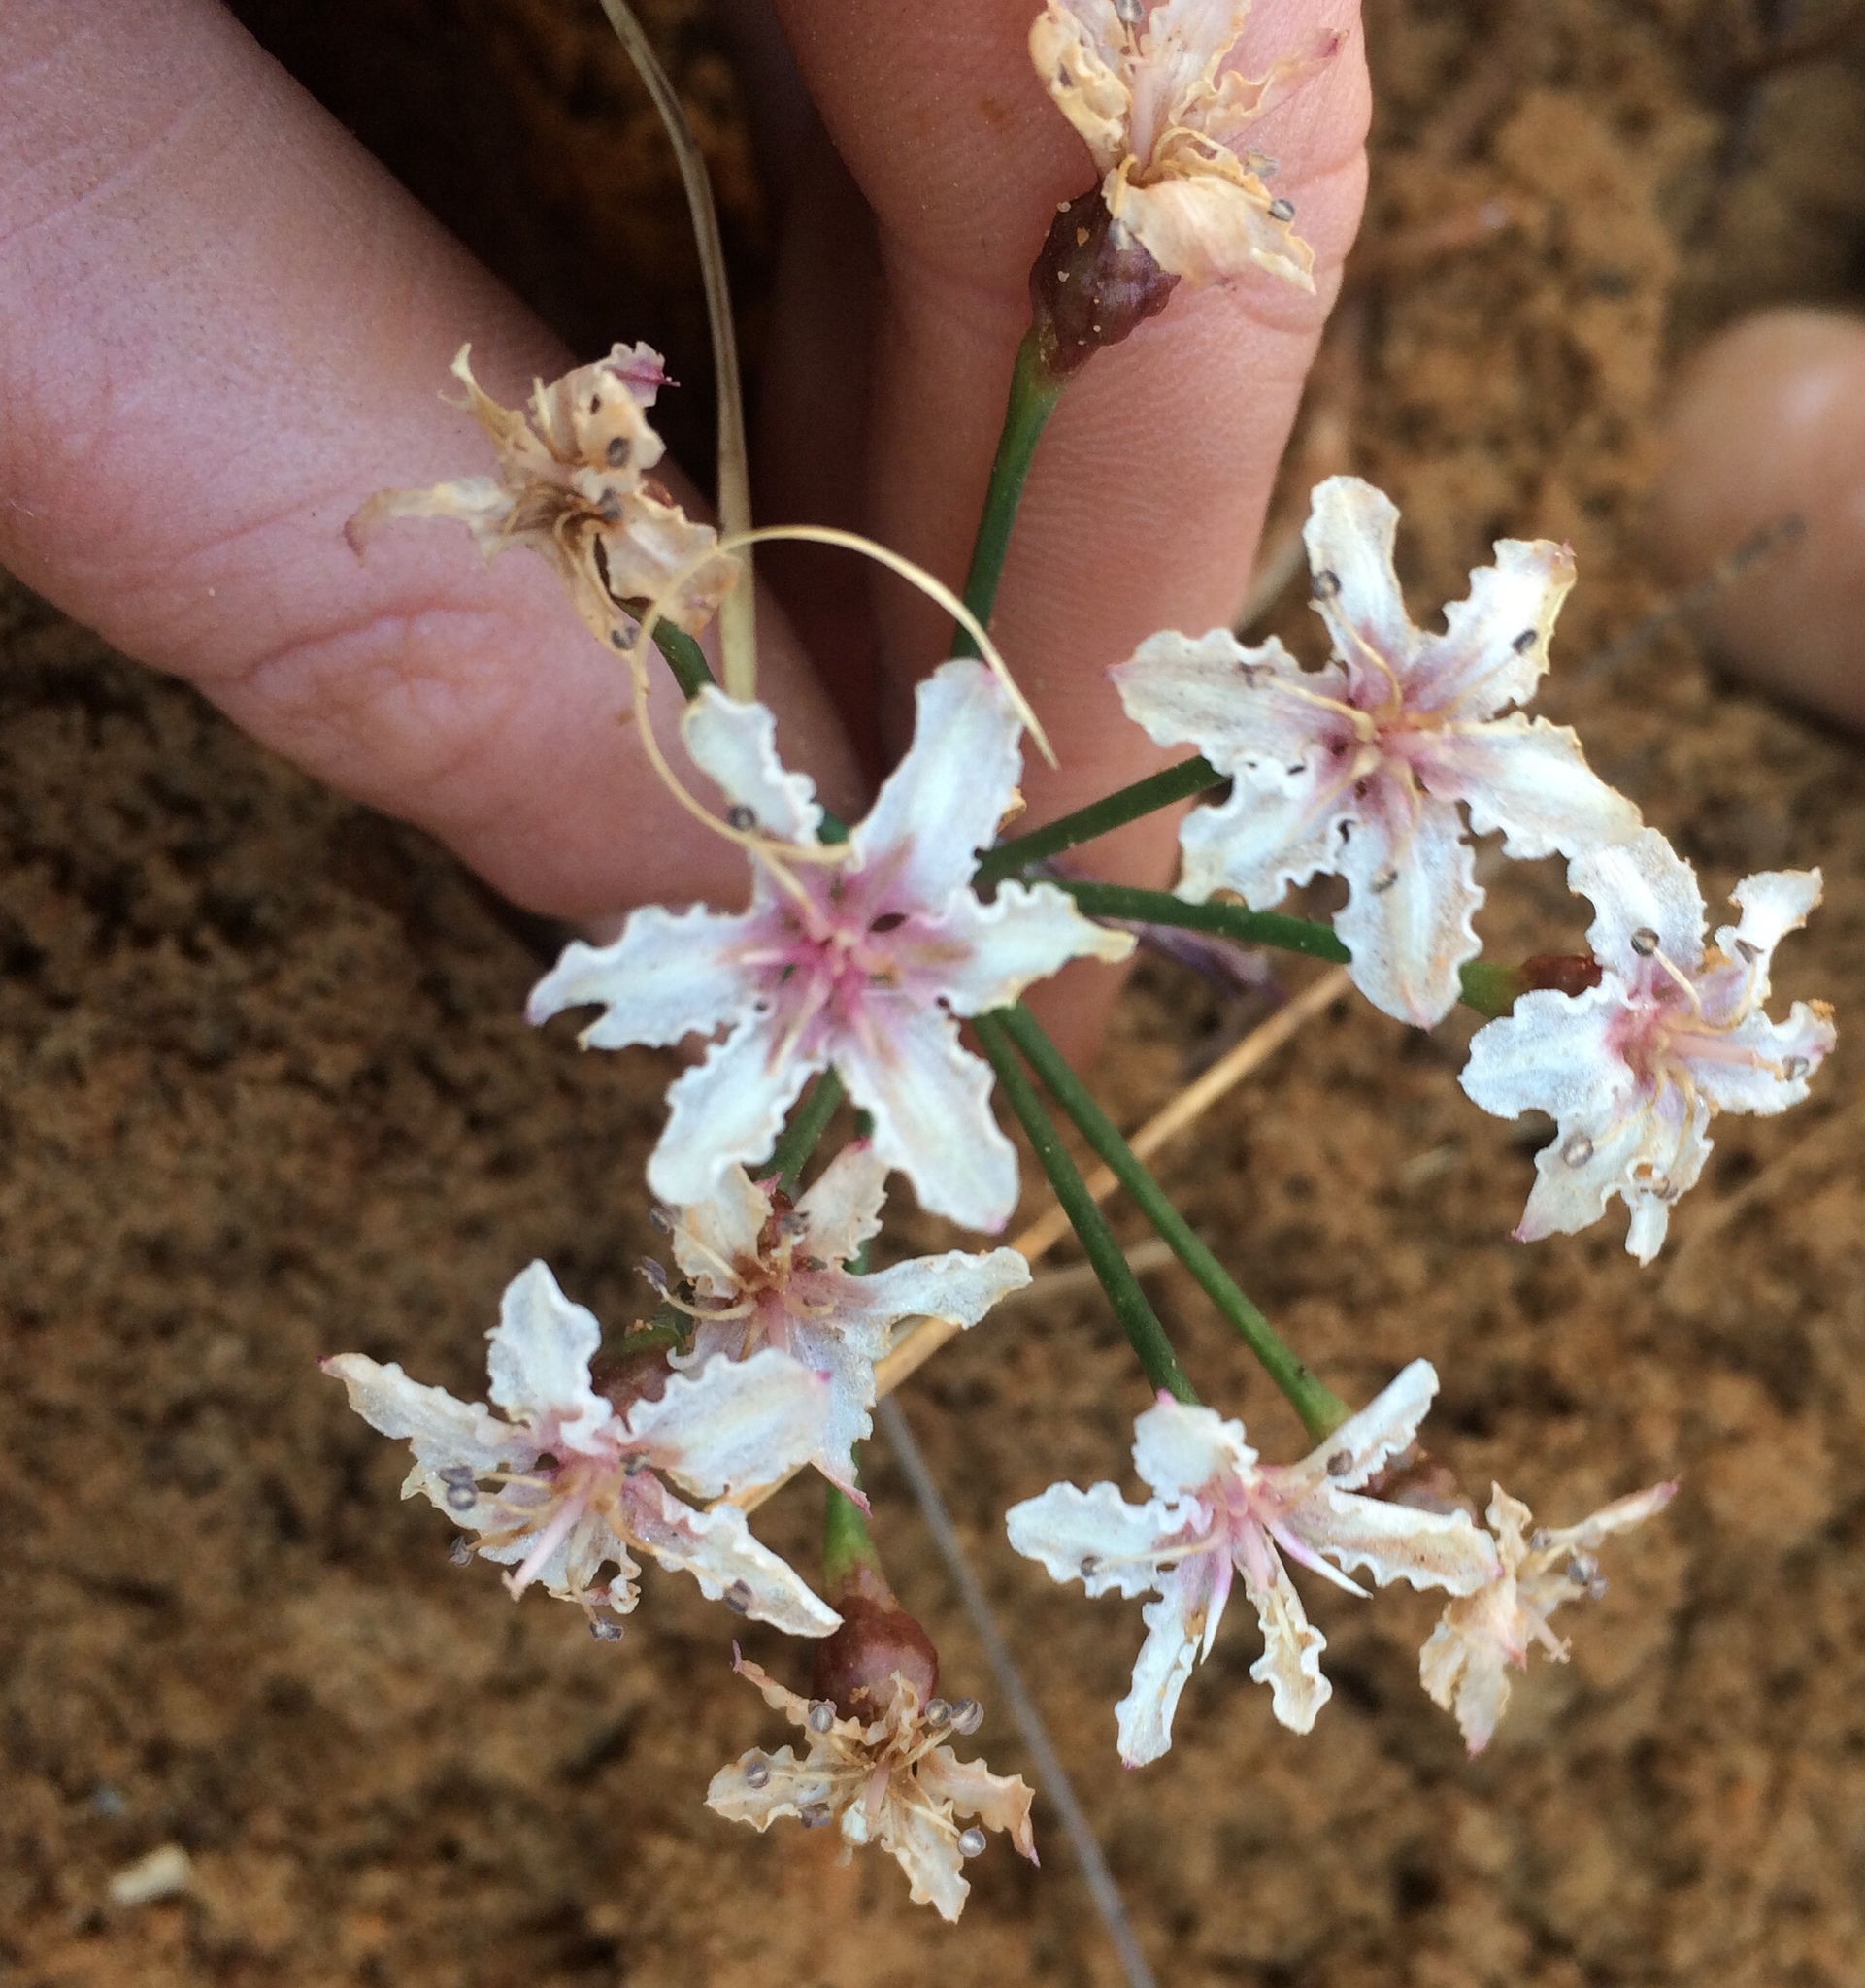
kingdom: Plantae
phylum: Tracheophyta
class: Liliopsida
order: Asparagales
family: Amaryllidaceae
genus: Hessea
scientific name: Hessea cinnamomea
